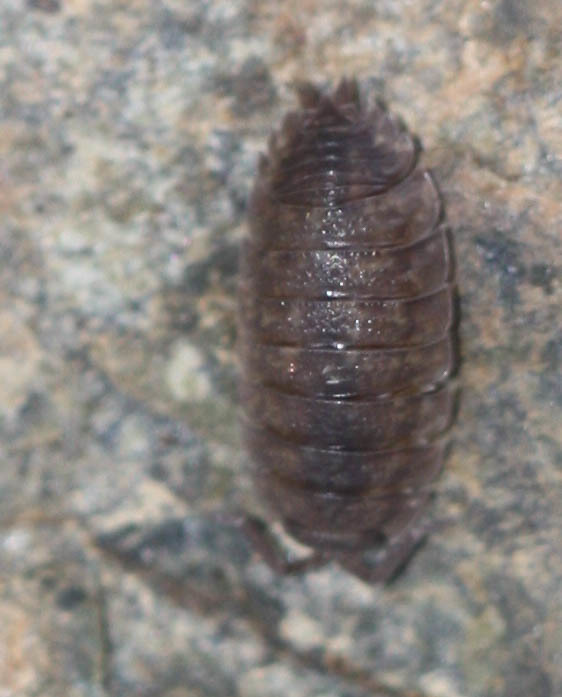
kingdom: Animalia
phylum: Arthropoda
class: Malacostraca
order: Isopoda
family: Porcellionidae
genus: Porcellio
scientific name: Porcellio scaber
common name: Common rough woodlouse
